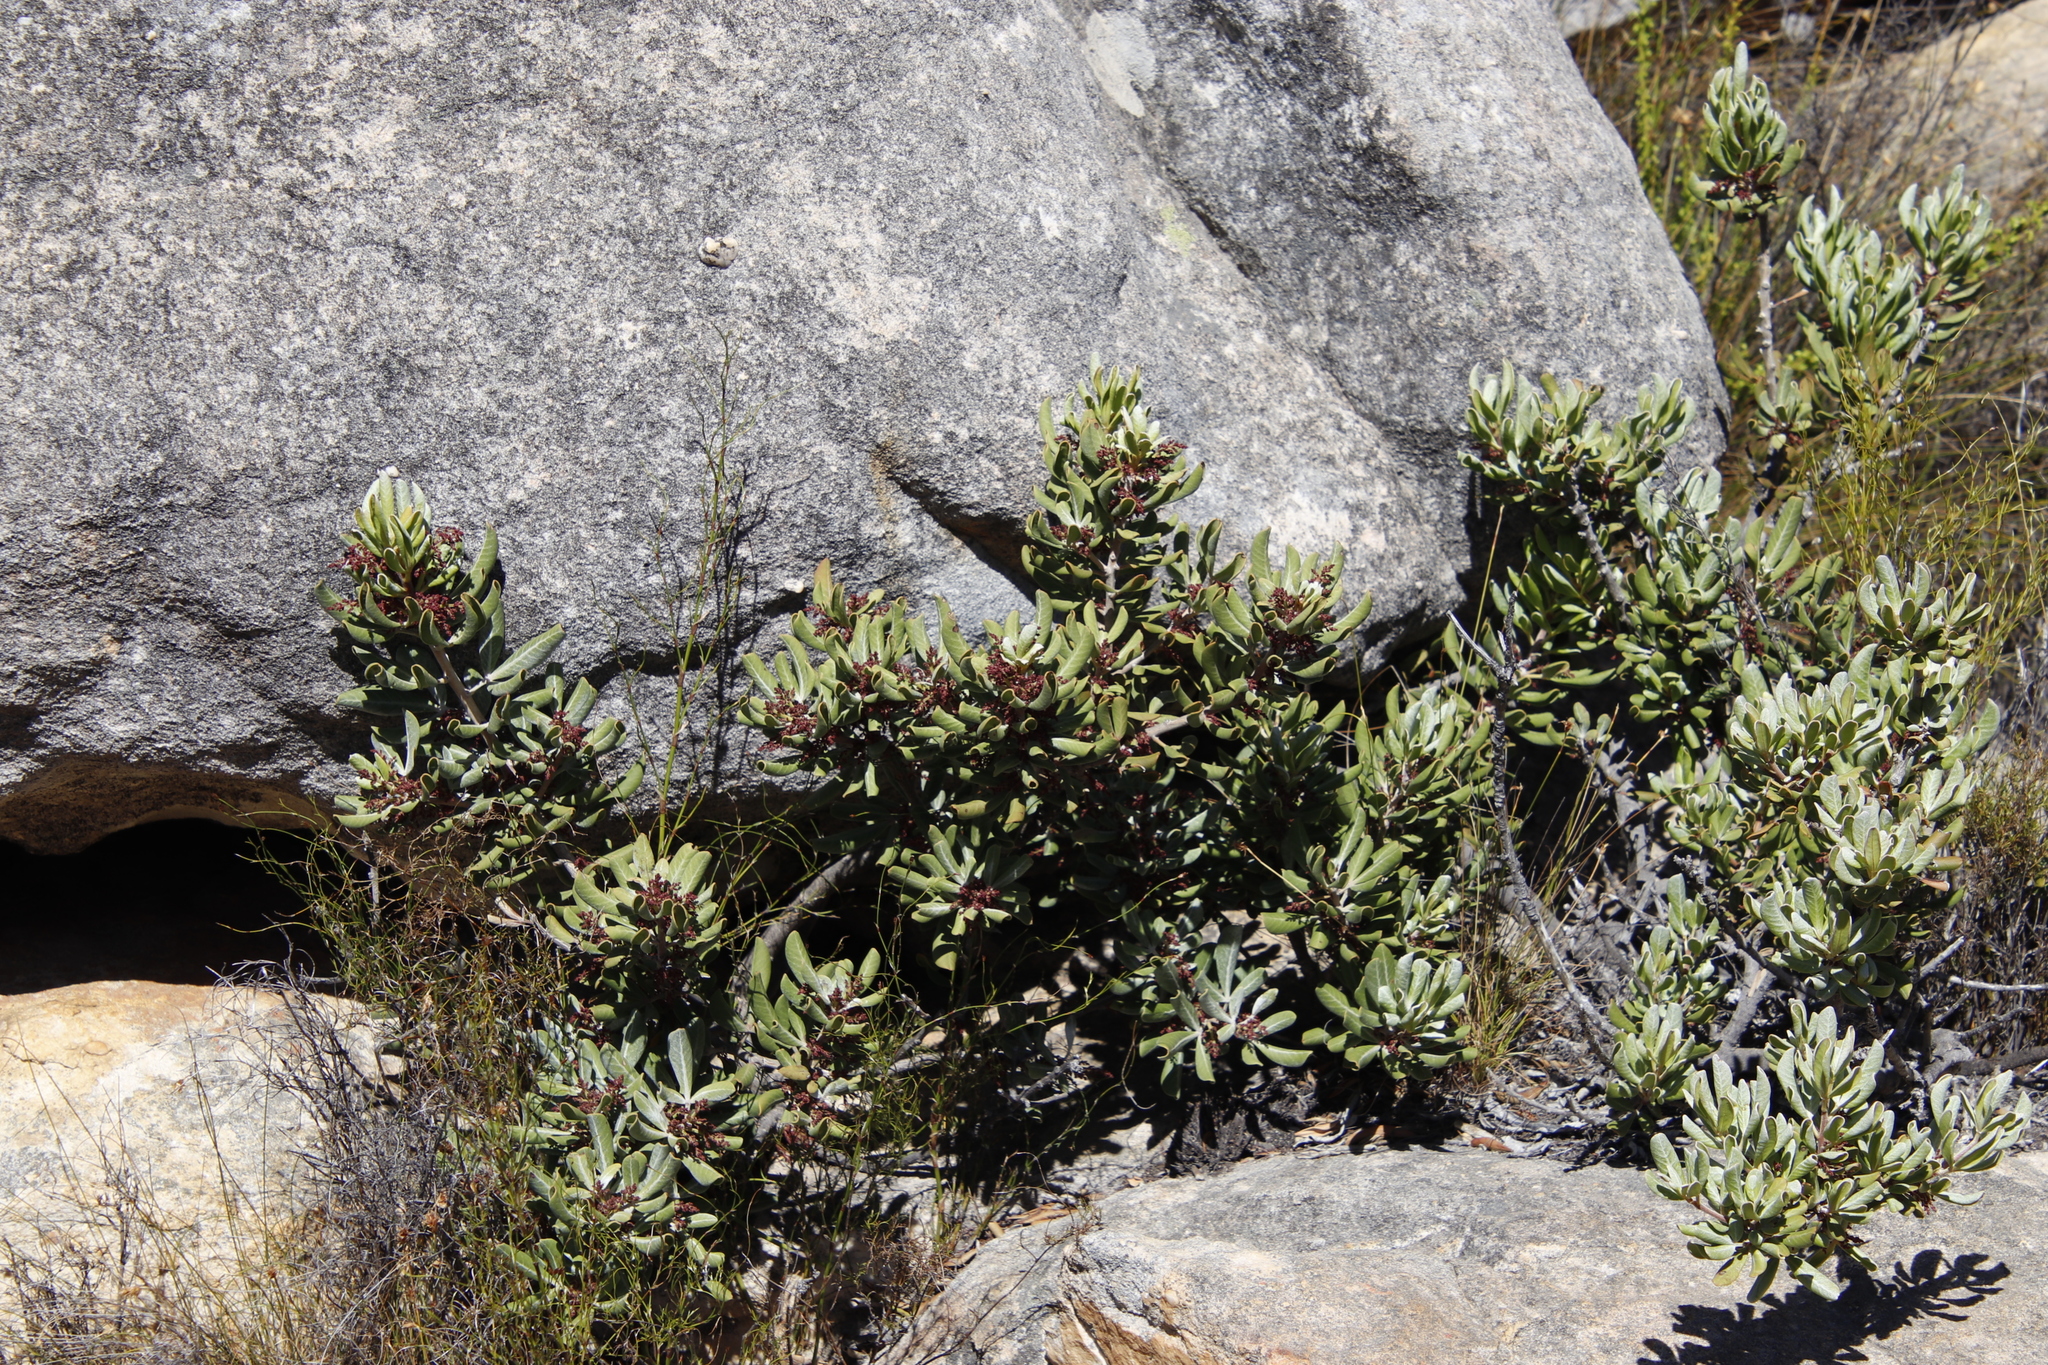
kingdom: Plantae
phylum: Tracheophyta
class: Magnoliopsida
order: Sapindales
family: Anacardiaceae
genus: Searsia
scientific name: Searsia scytophylla
